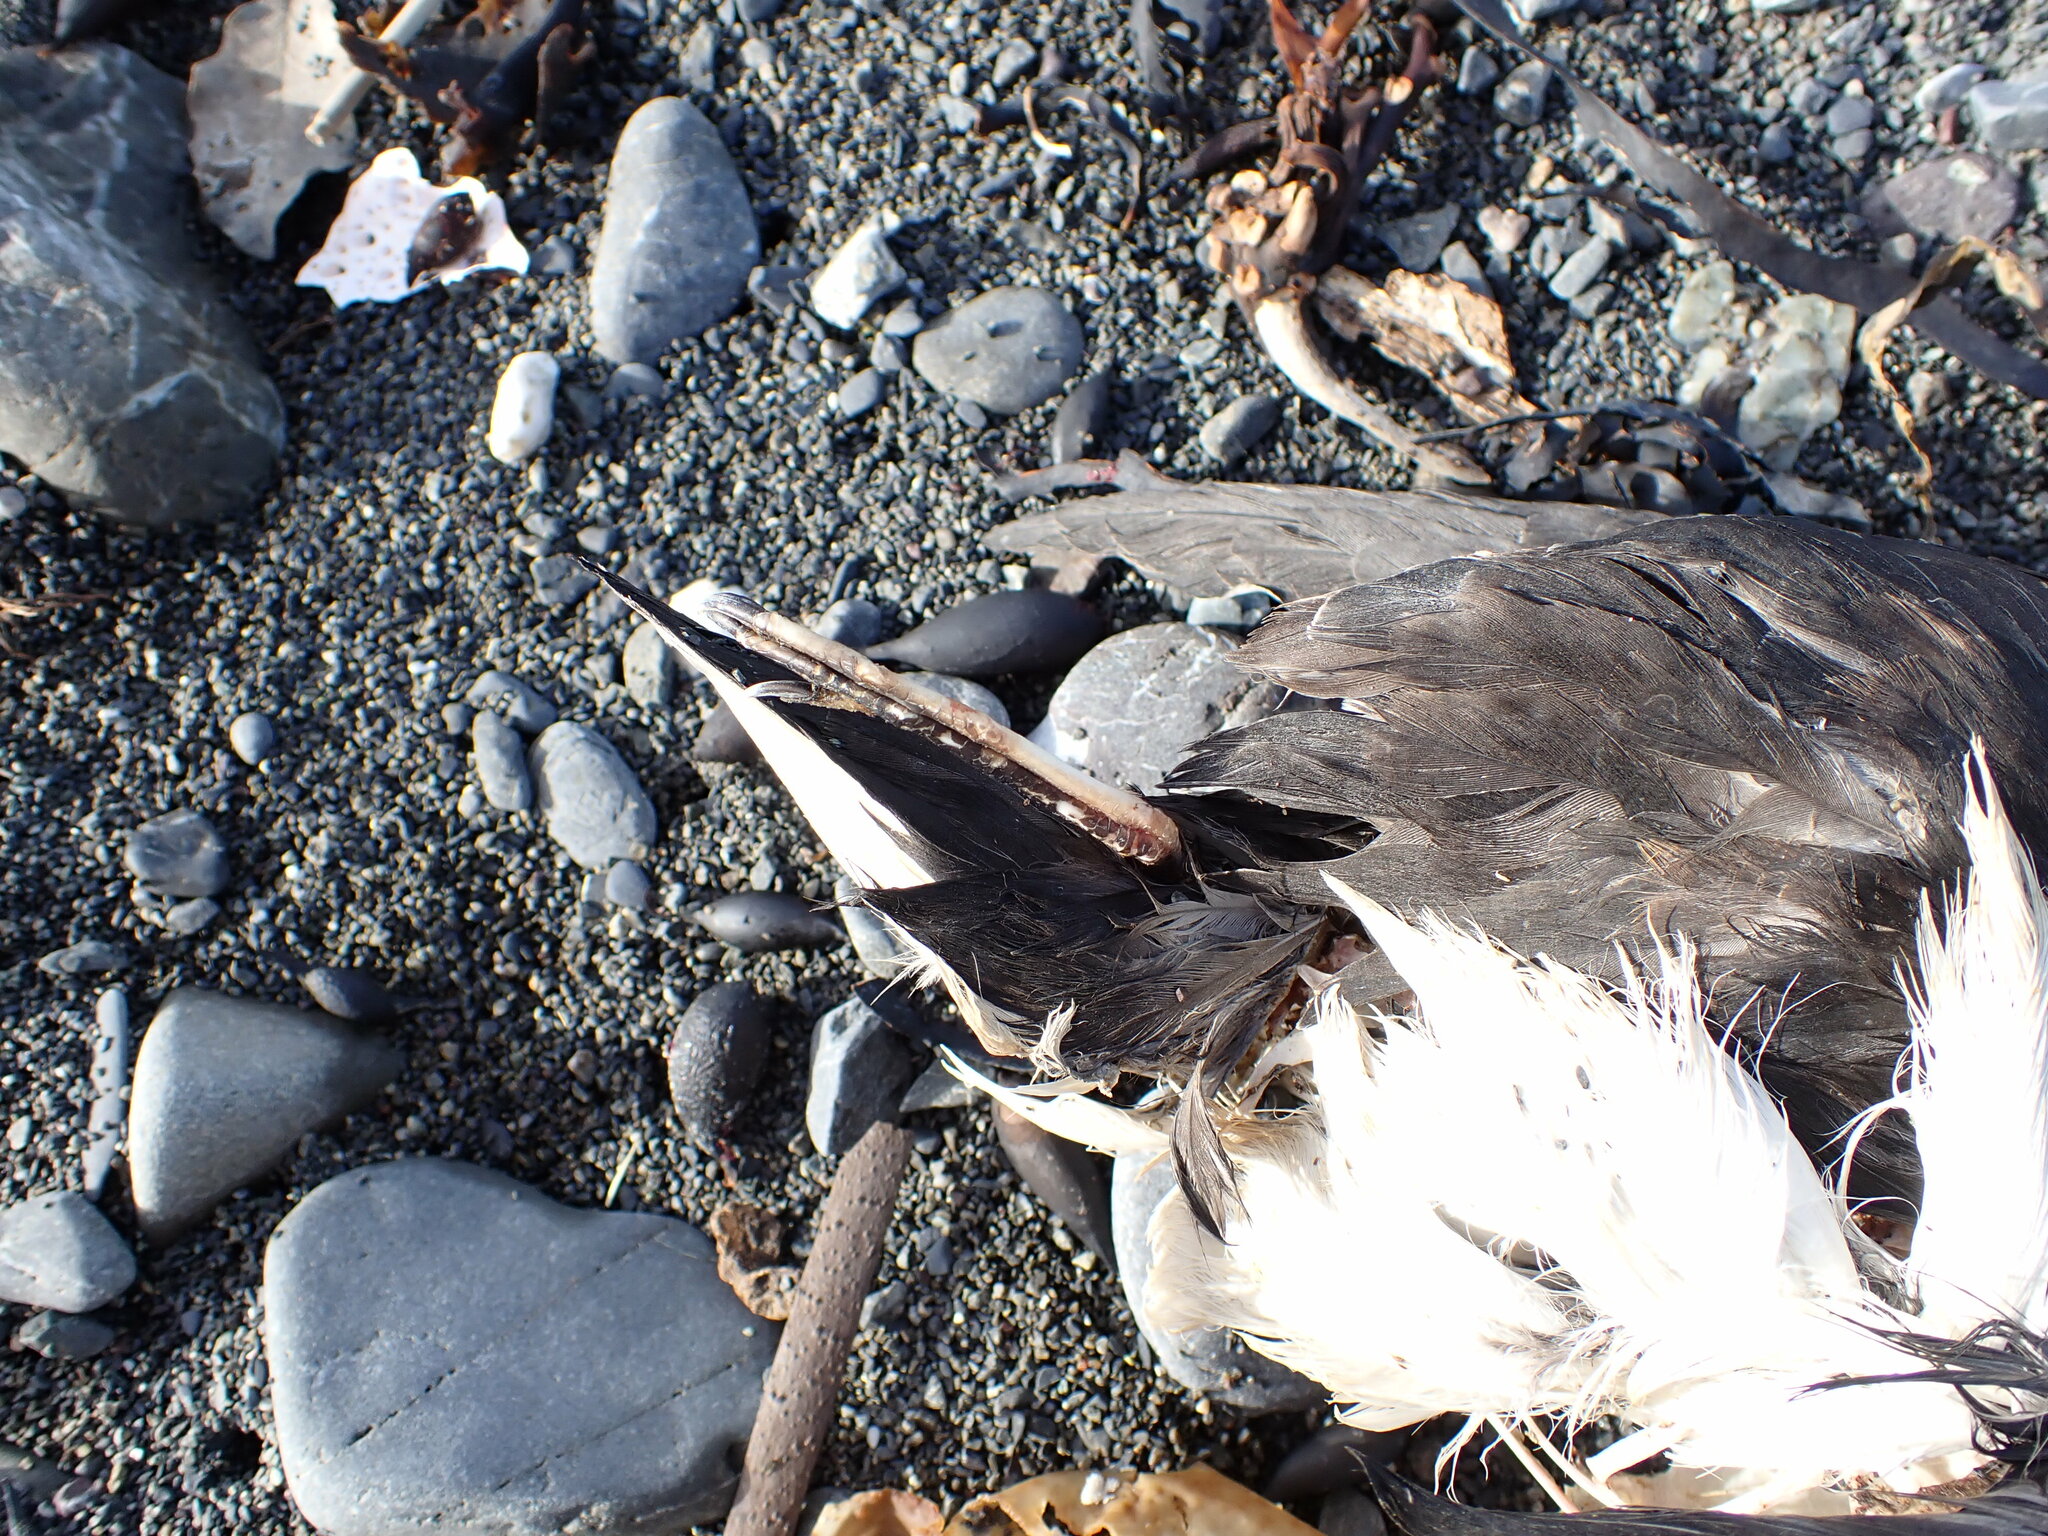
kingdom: Animalia
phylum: Chordata
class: Aves
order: Procellariiformes
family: Procellariidae
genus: Puffinus
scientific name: Puffinus gavia
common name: Fluttering shearwater
